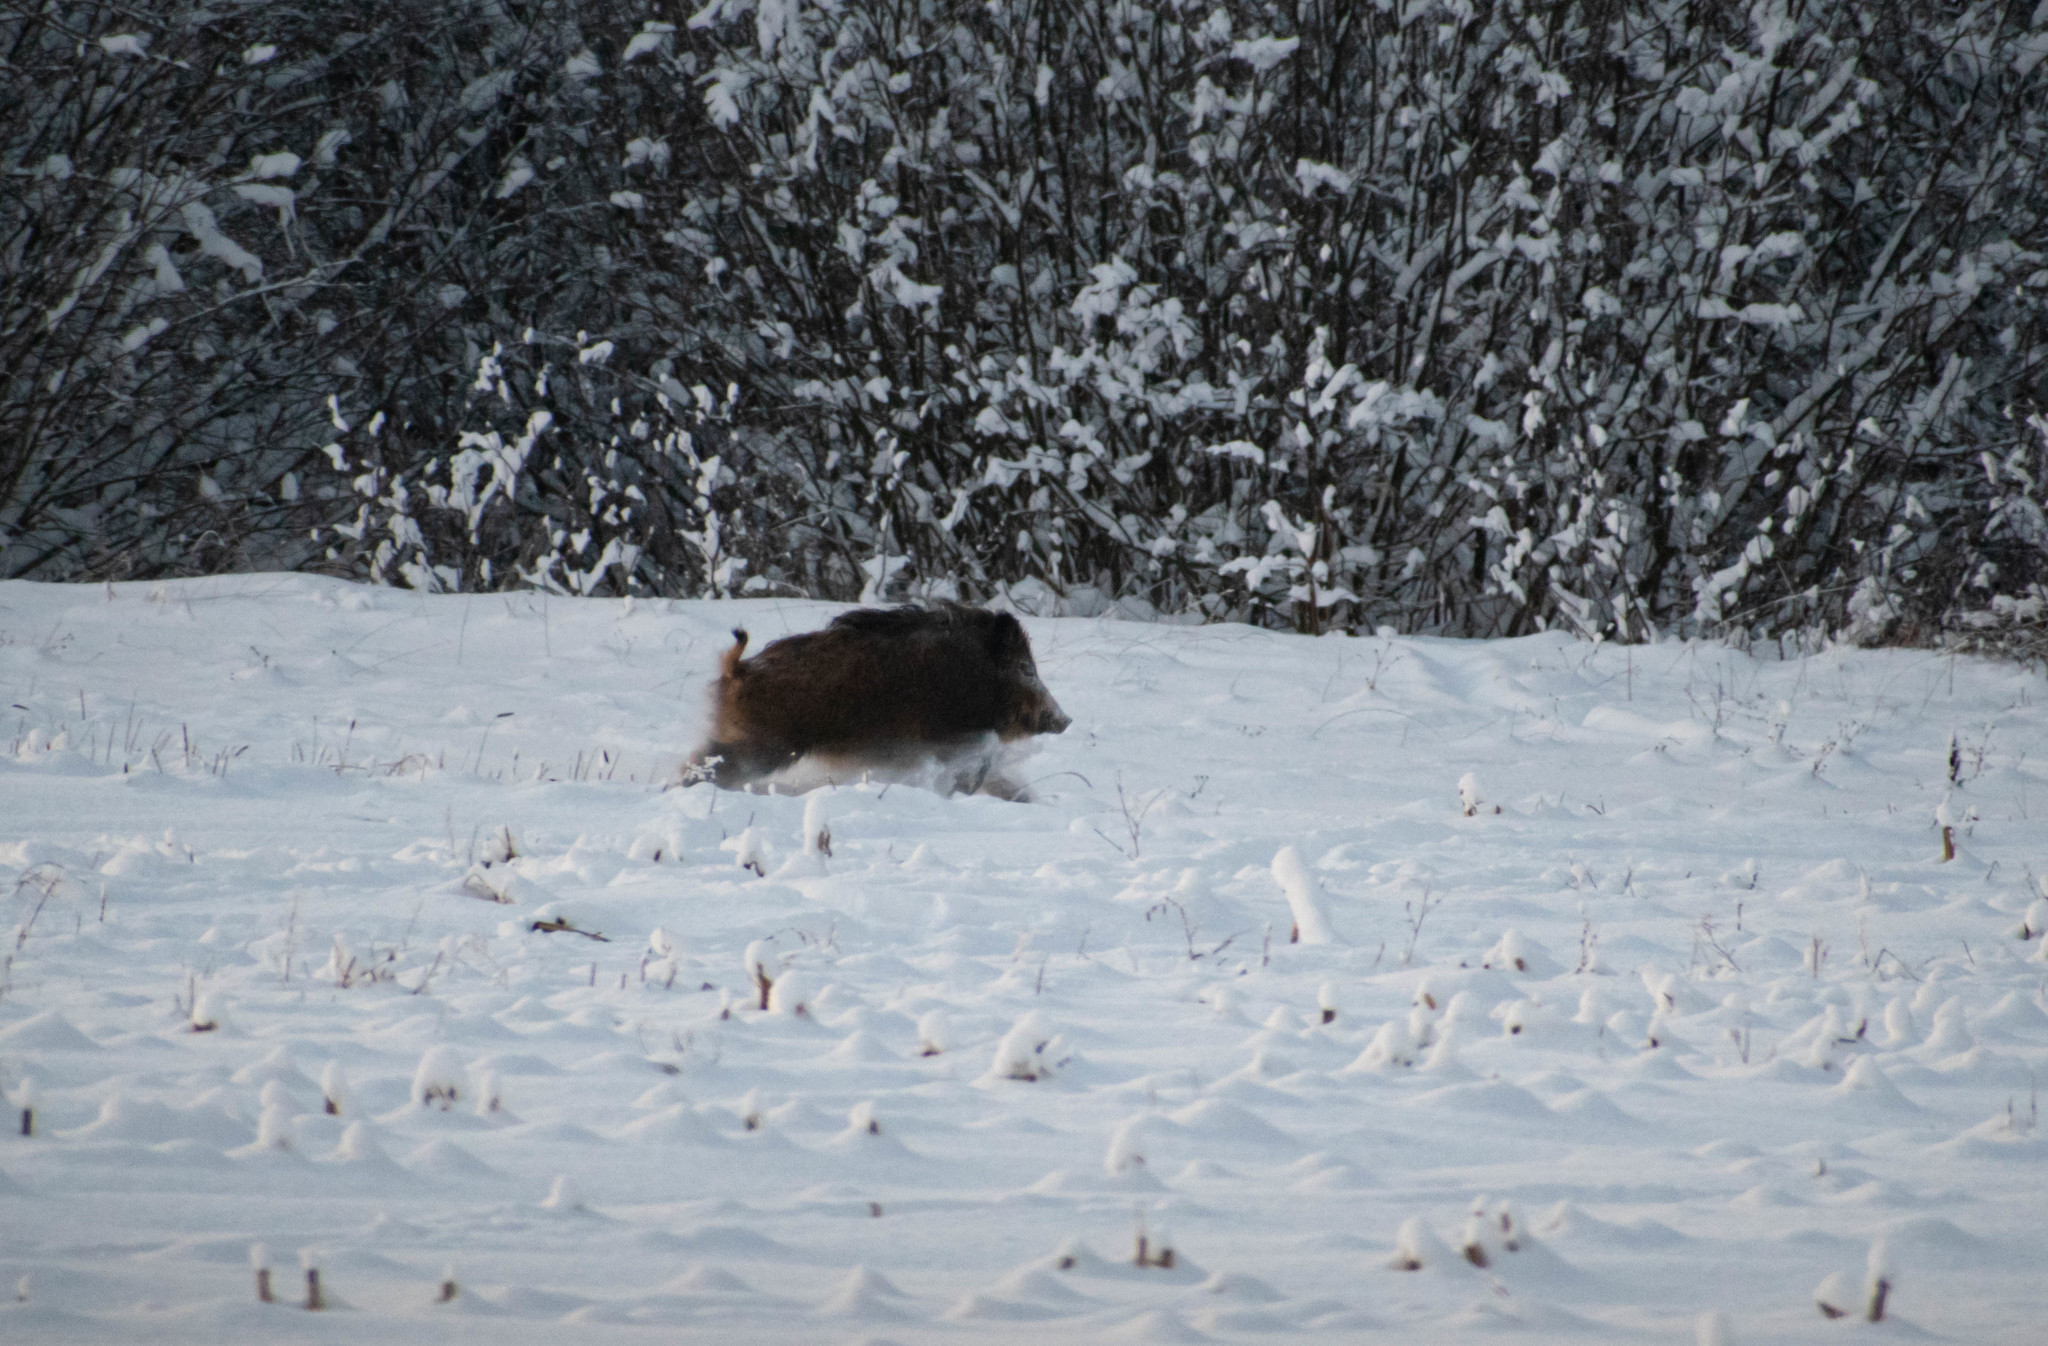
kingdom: Animalia
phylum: Chordata
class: Mammalia
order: Artiodactyla
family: Suidae
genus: Sus
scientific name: Sus scrofa
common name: Wild boar
